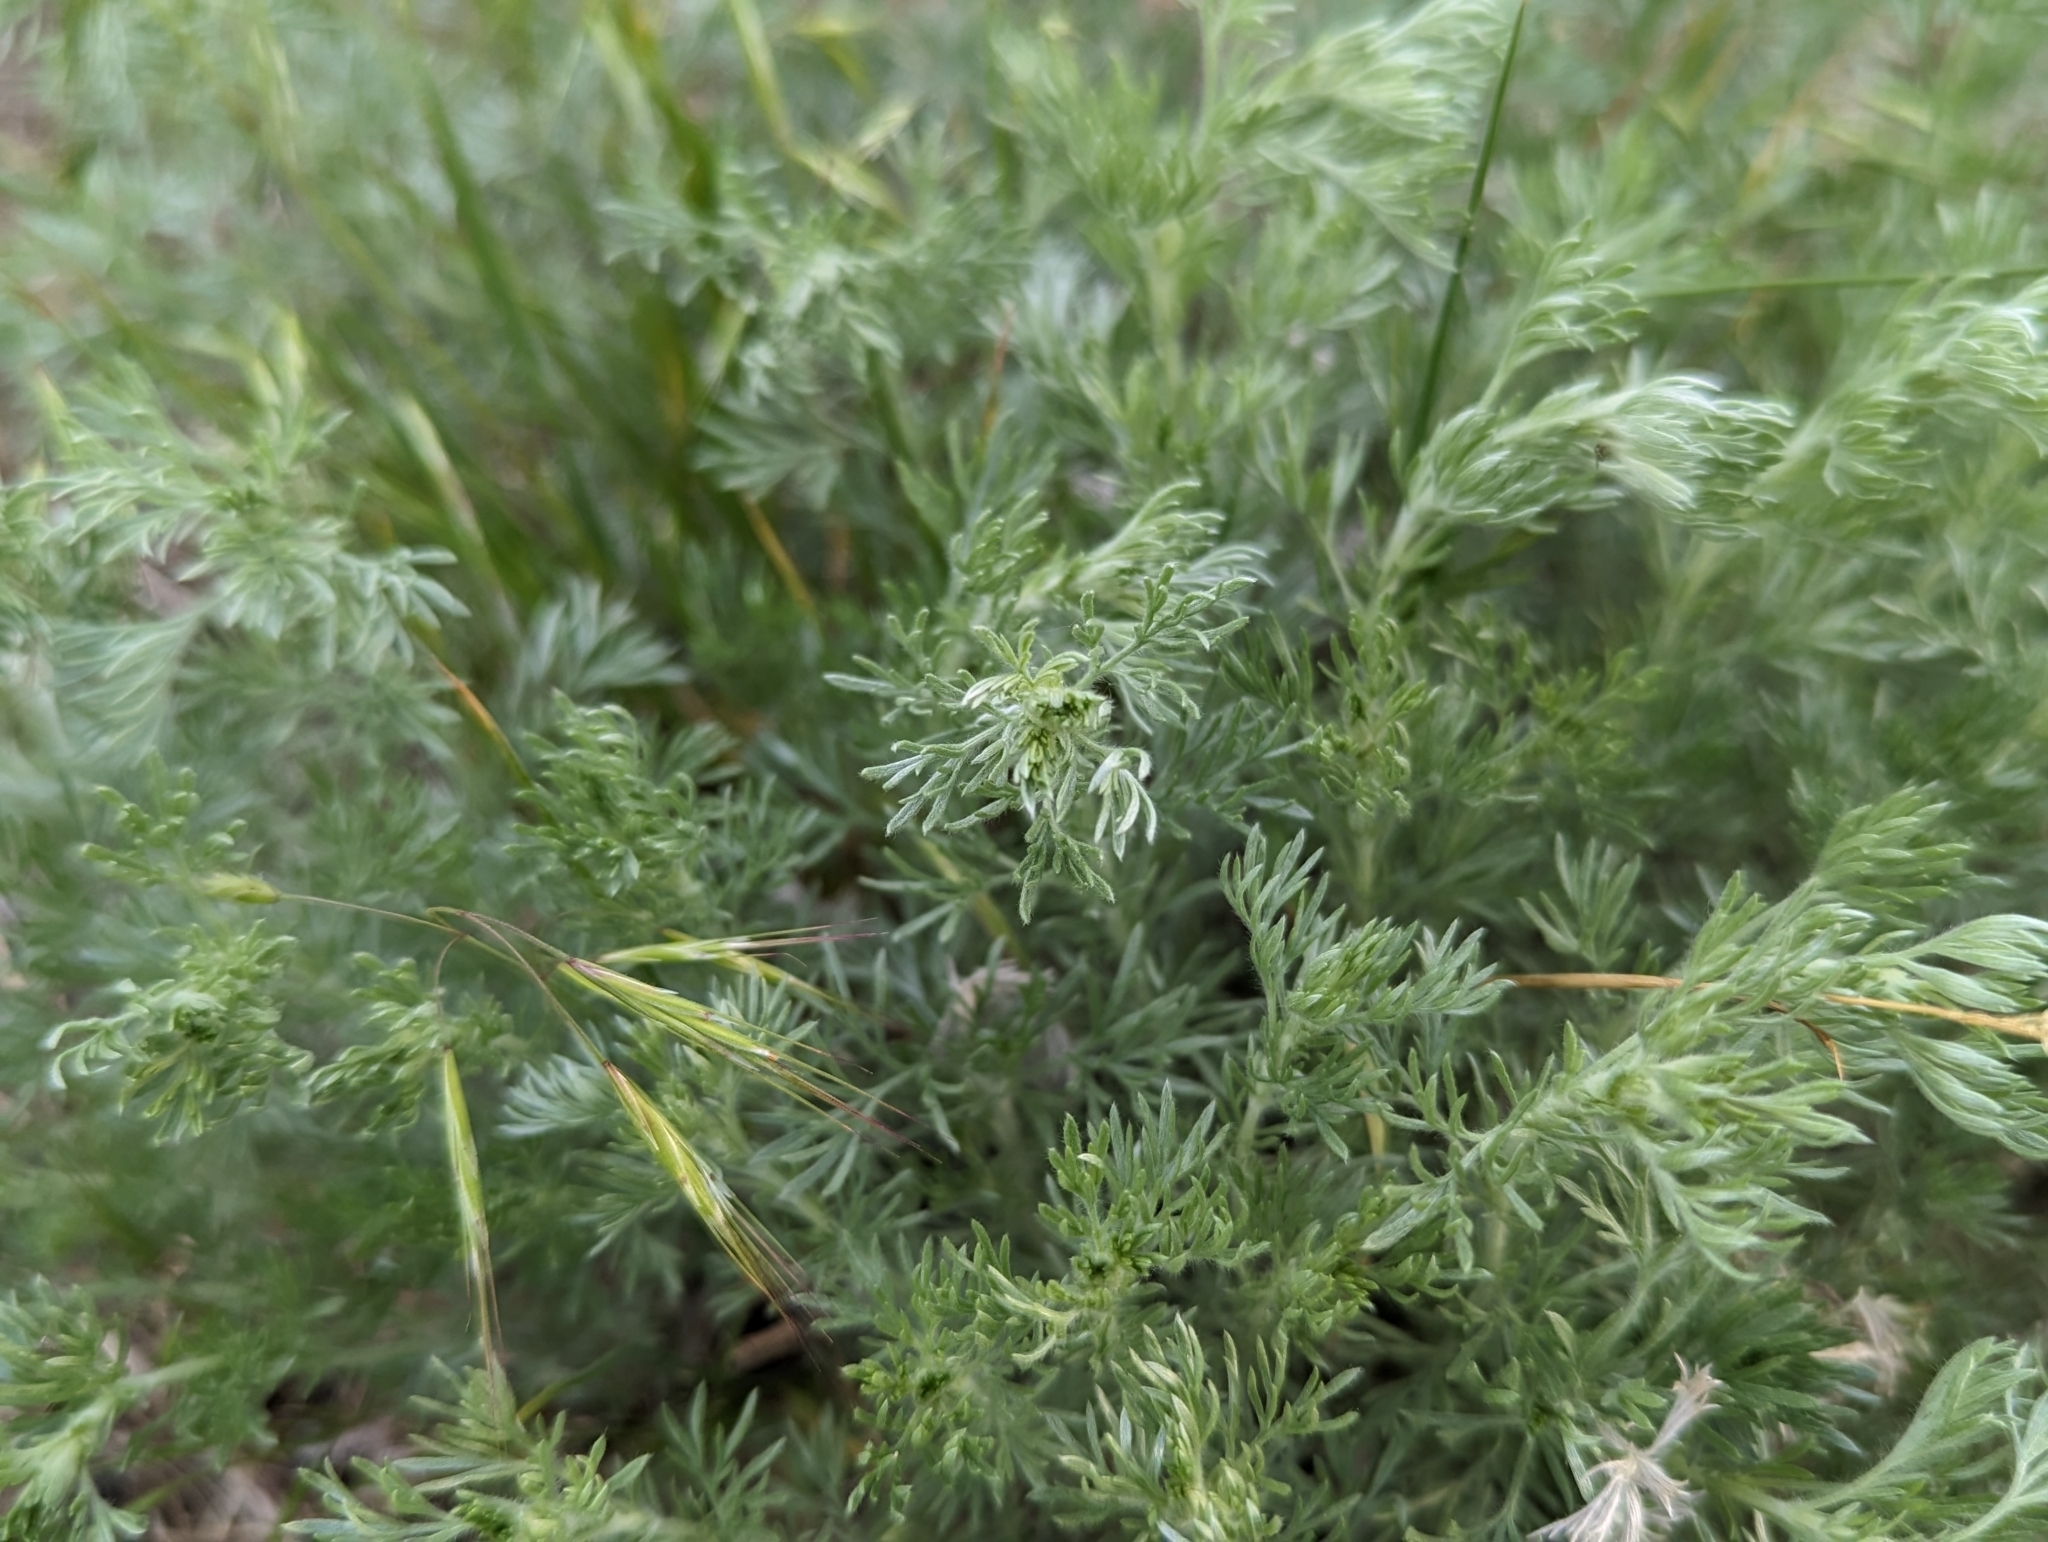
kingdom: Plantae
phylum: Tracheophyta
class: Magnoliopsida
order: Asterales
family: Asteraceae
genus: Artemisia
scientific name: Artemisia frigida
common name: Prairie sagewort
